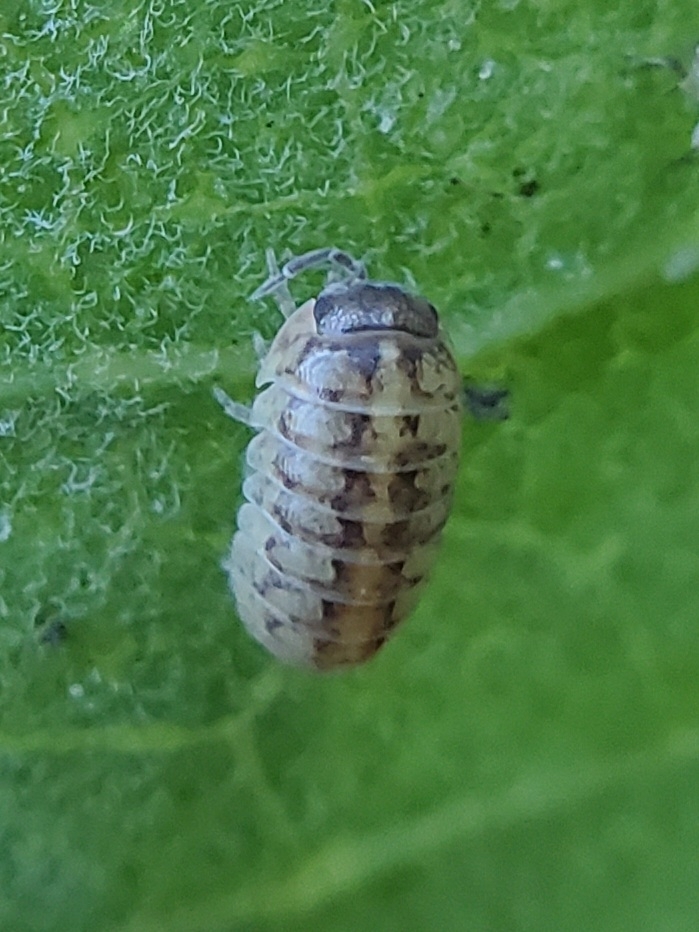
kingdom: Animalia
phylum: Arthropoda
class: Malacostraca
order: Isopoda
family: Armadillidiidae
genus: Armadillidium
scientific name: Armadillidium vulgare
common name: Common pill woodlouse
